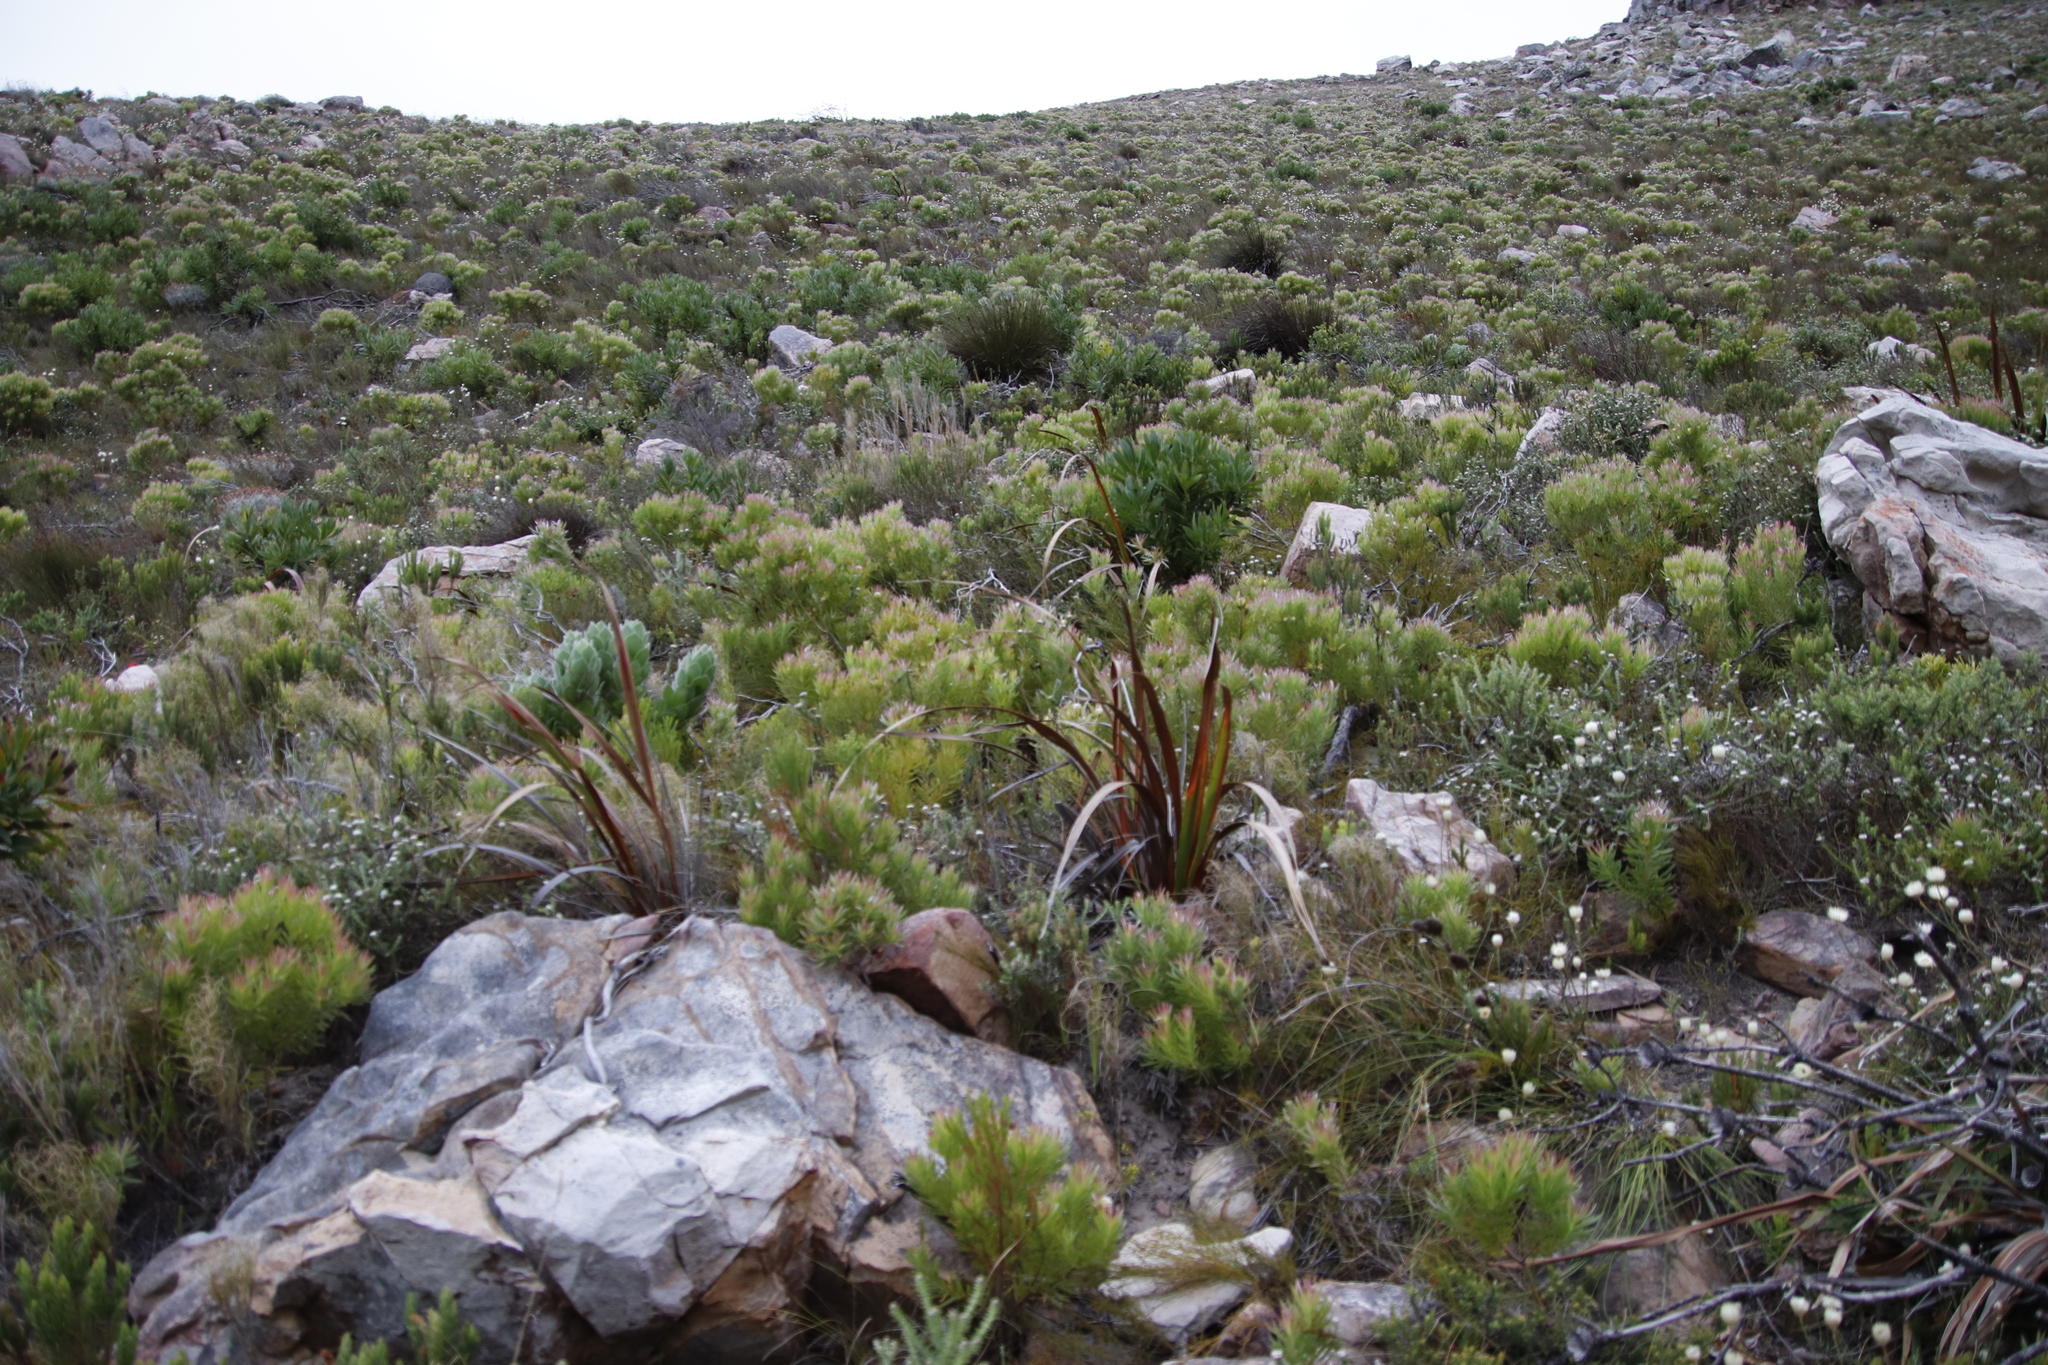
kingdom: Plantae
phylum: Tracheophyta
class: Magnoliopsida
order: Proteales
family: Proteaceae
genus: Leucadendron
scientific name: Leucadendron xanthoconus
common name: Sickle-leaf conebush
